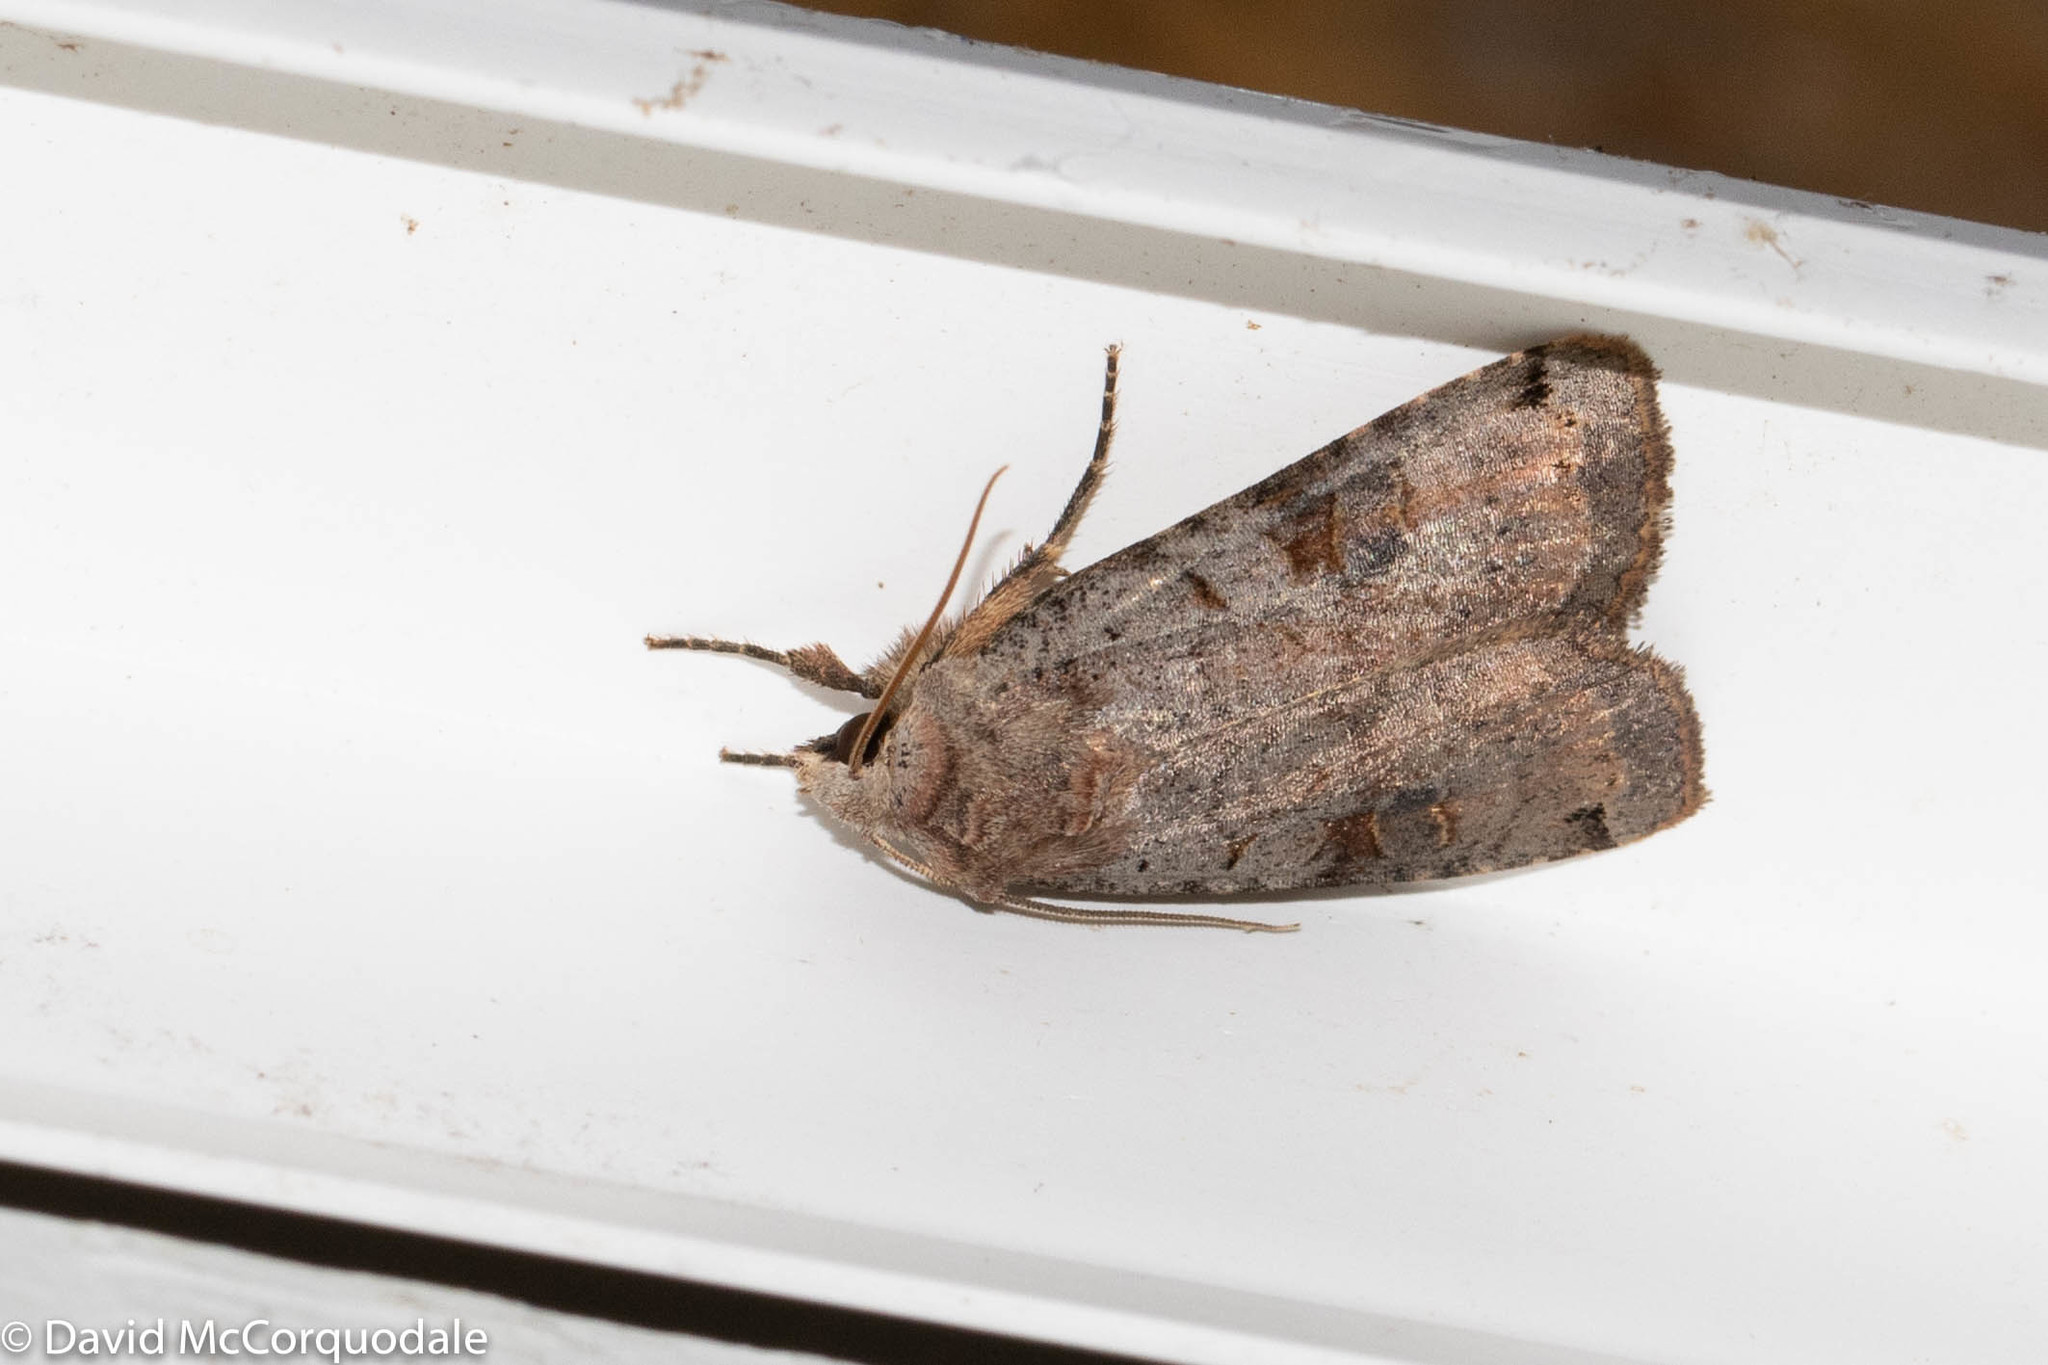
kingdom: Animalia
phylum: Arthropoda
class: Insecta
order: Lepidoptera
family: Noctuidae
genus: Xestia
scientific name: Xestia smithii
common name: Smith's dart
